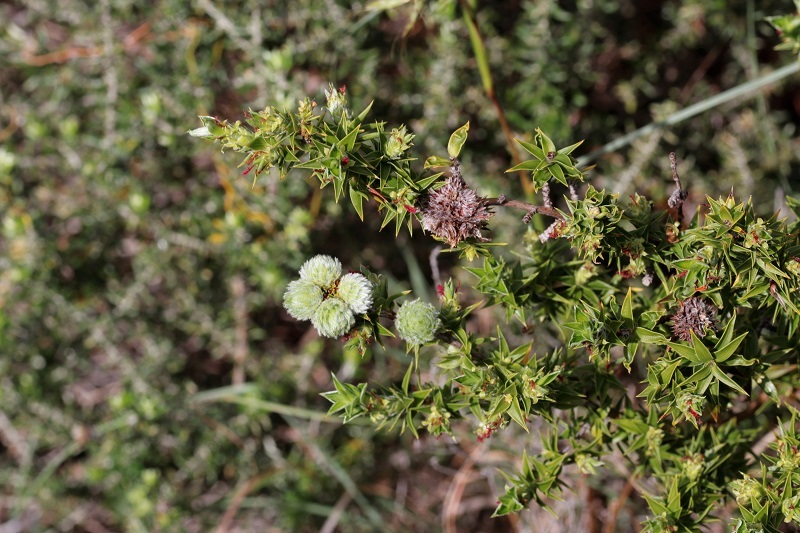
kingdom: Plantae
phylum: Tracheophyta
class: Magnoliopsida
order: Rosales
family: Rosaceae
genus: Cliffortia
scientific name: Cliffortia ruscifolia
